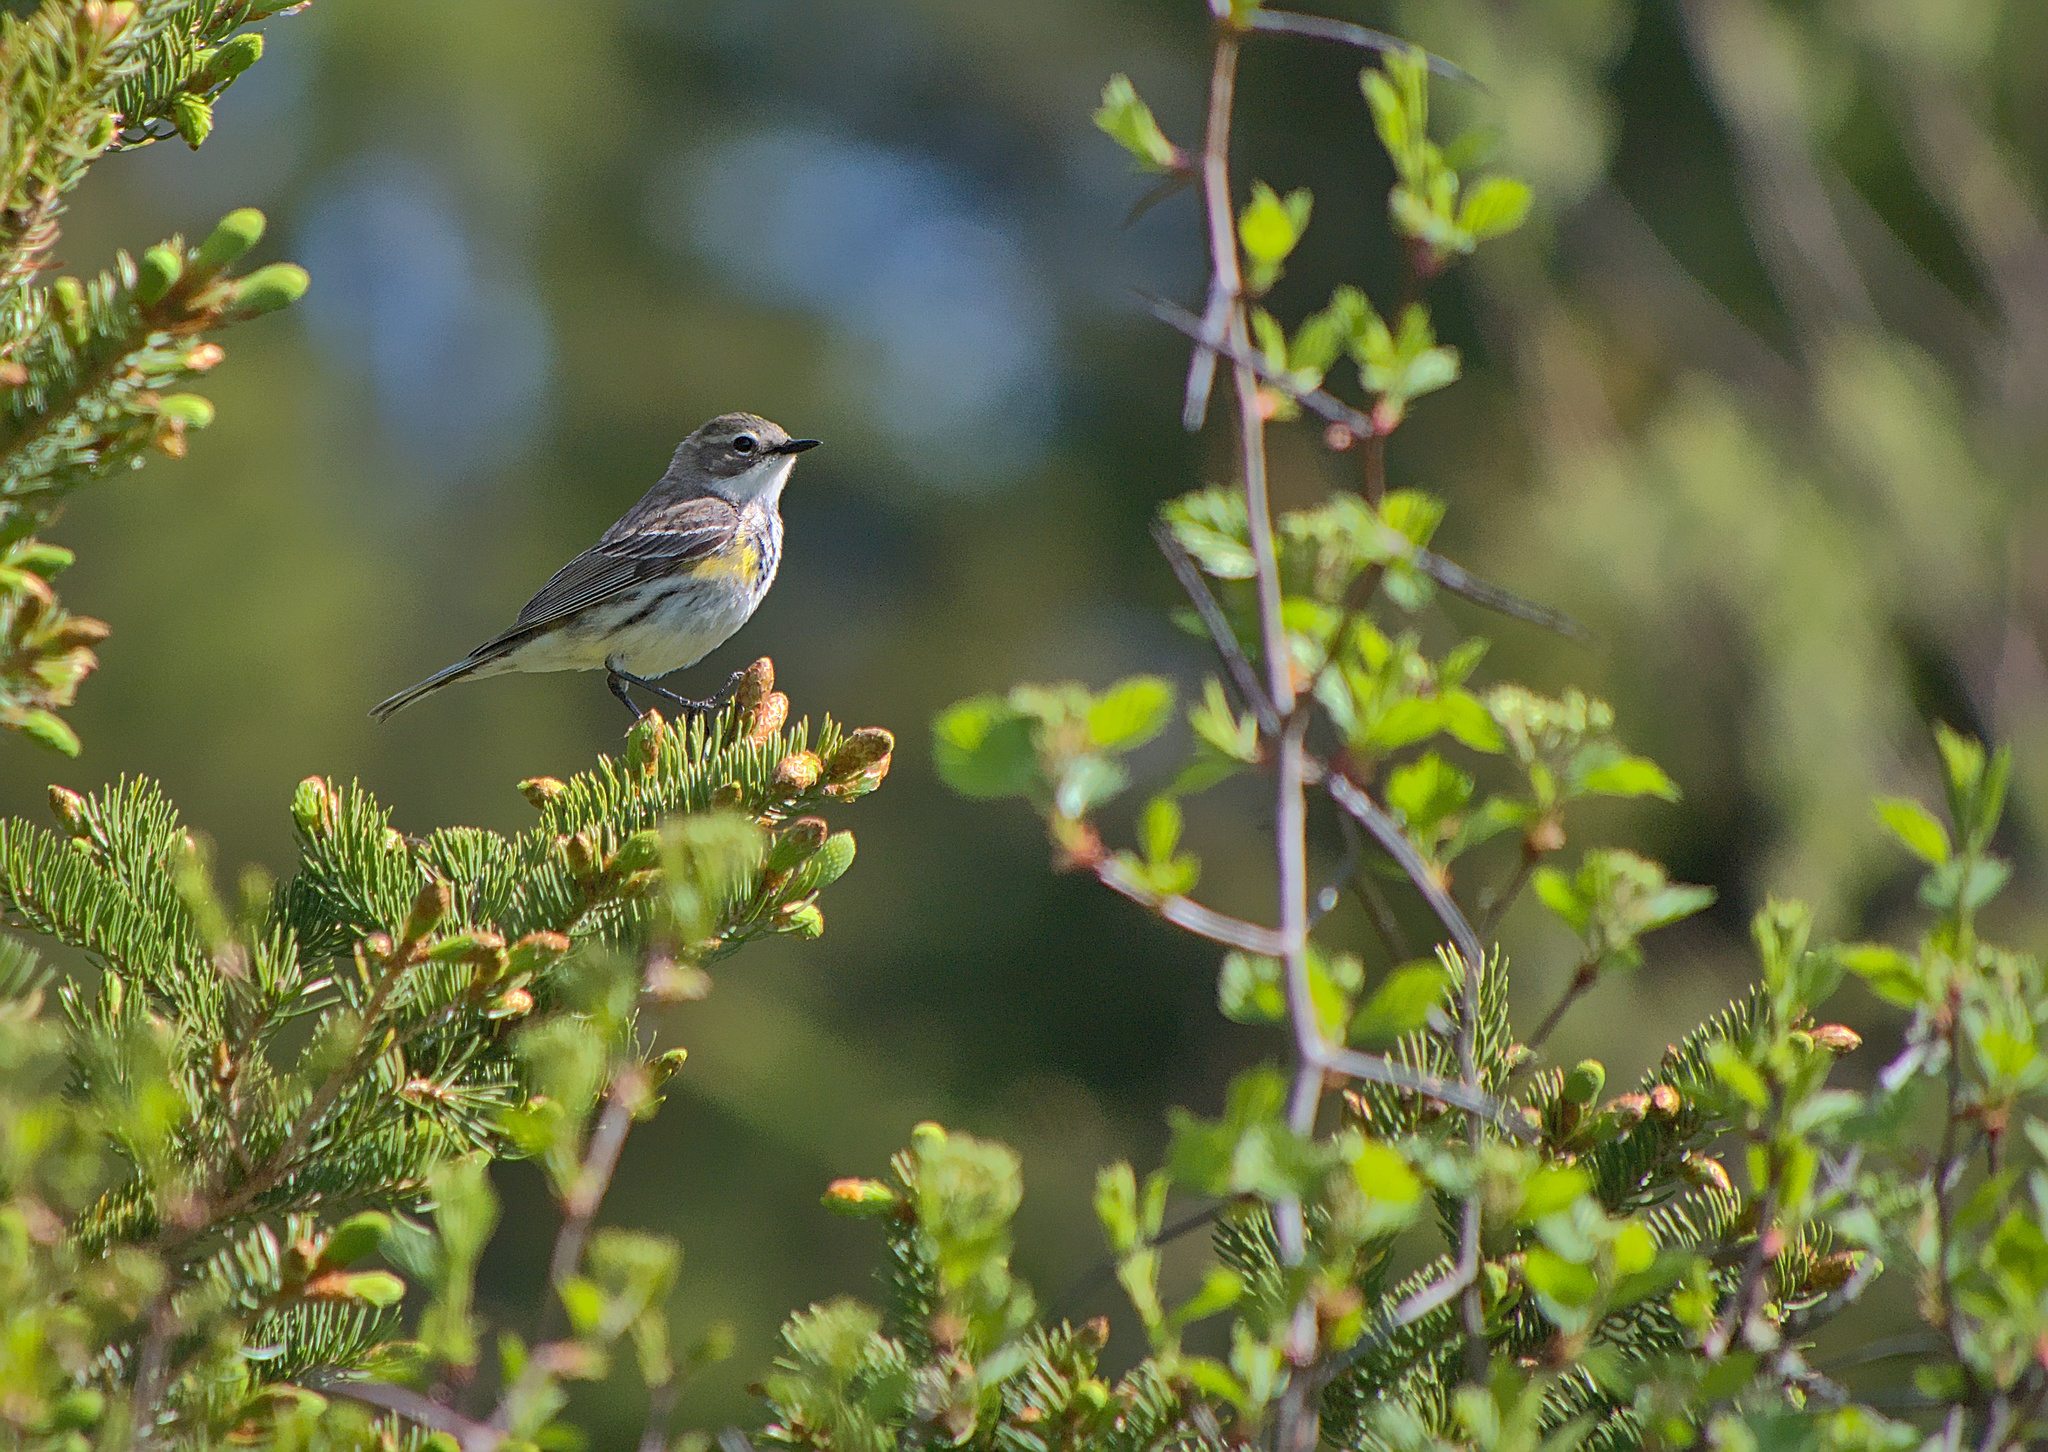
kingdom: Animalia
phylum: Chordata
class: Aves
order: Passeriformes
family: Parulidae
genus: Setophaga
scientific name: Setophaga coronata
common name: Myrtle warbler
